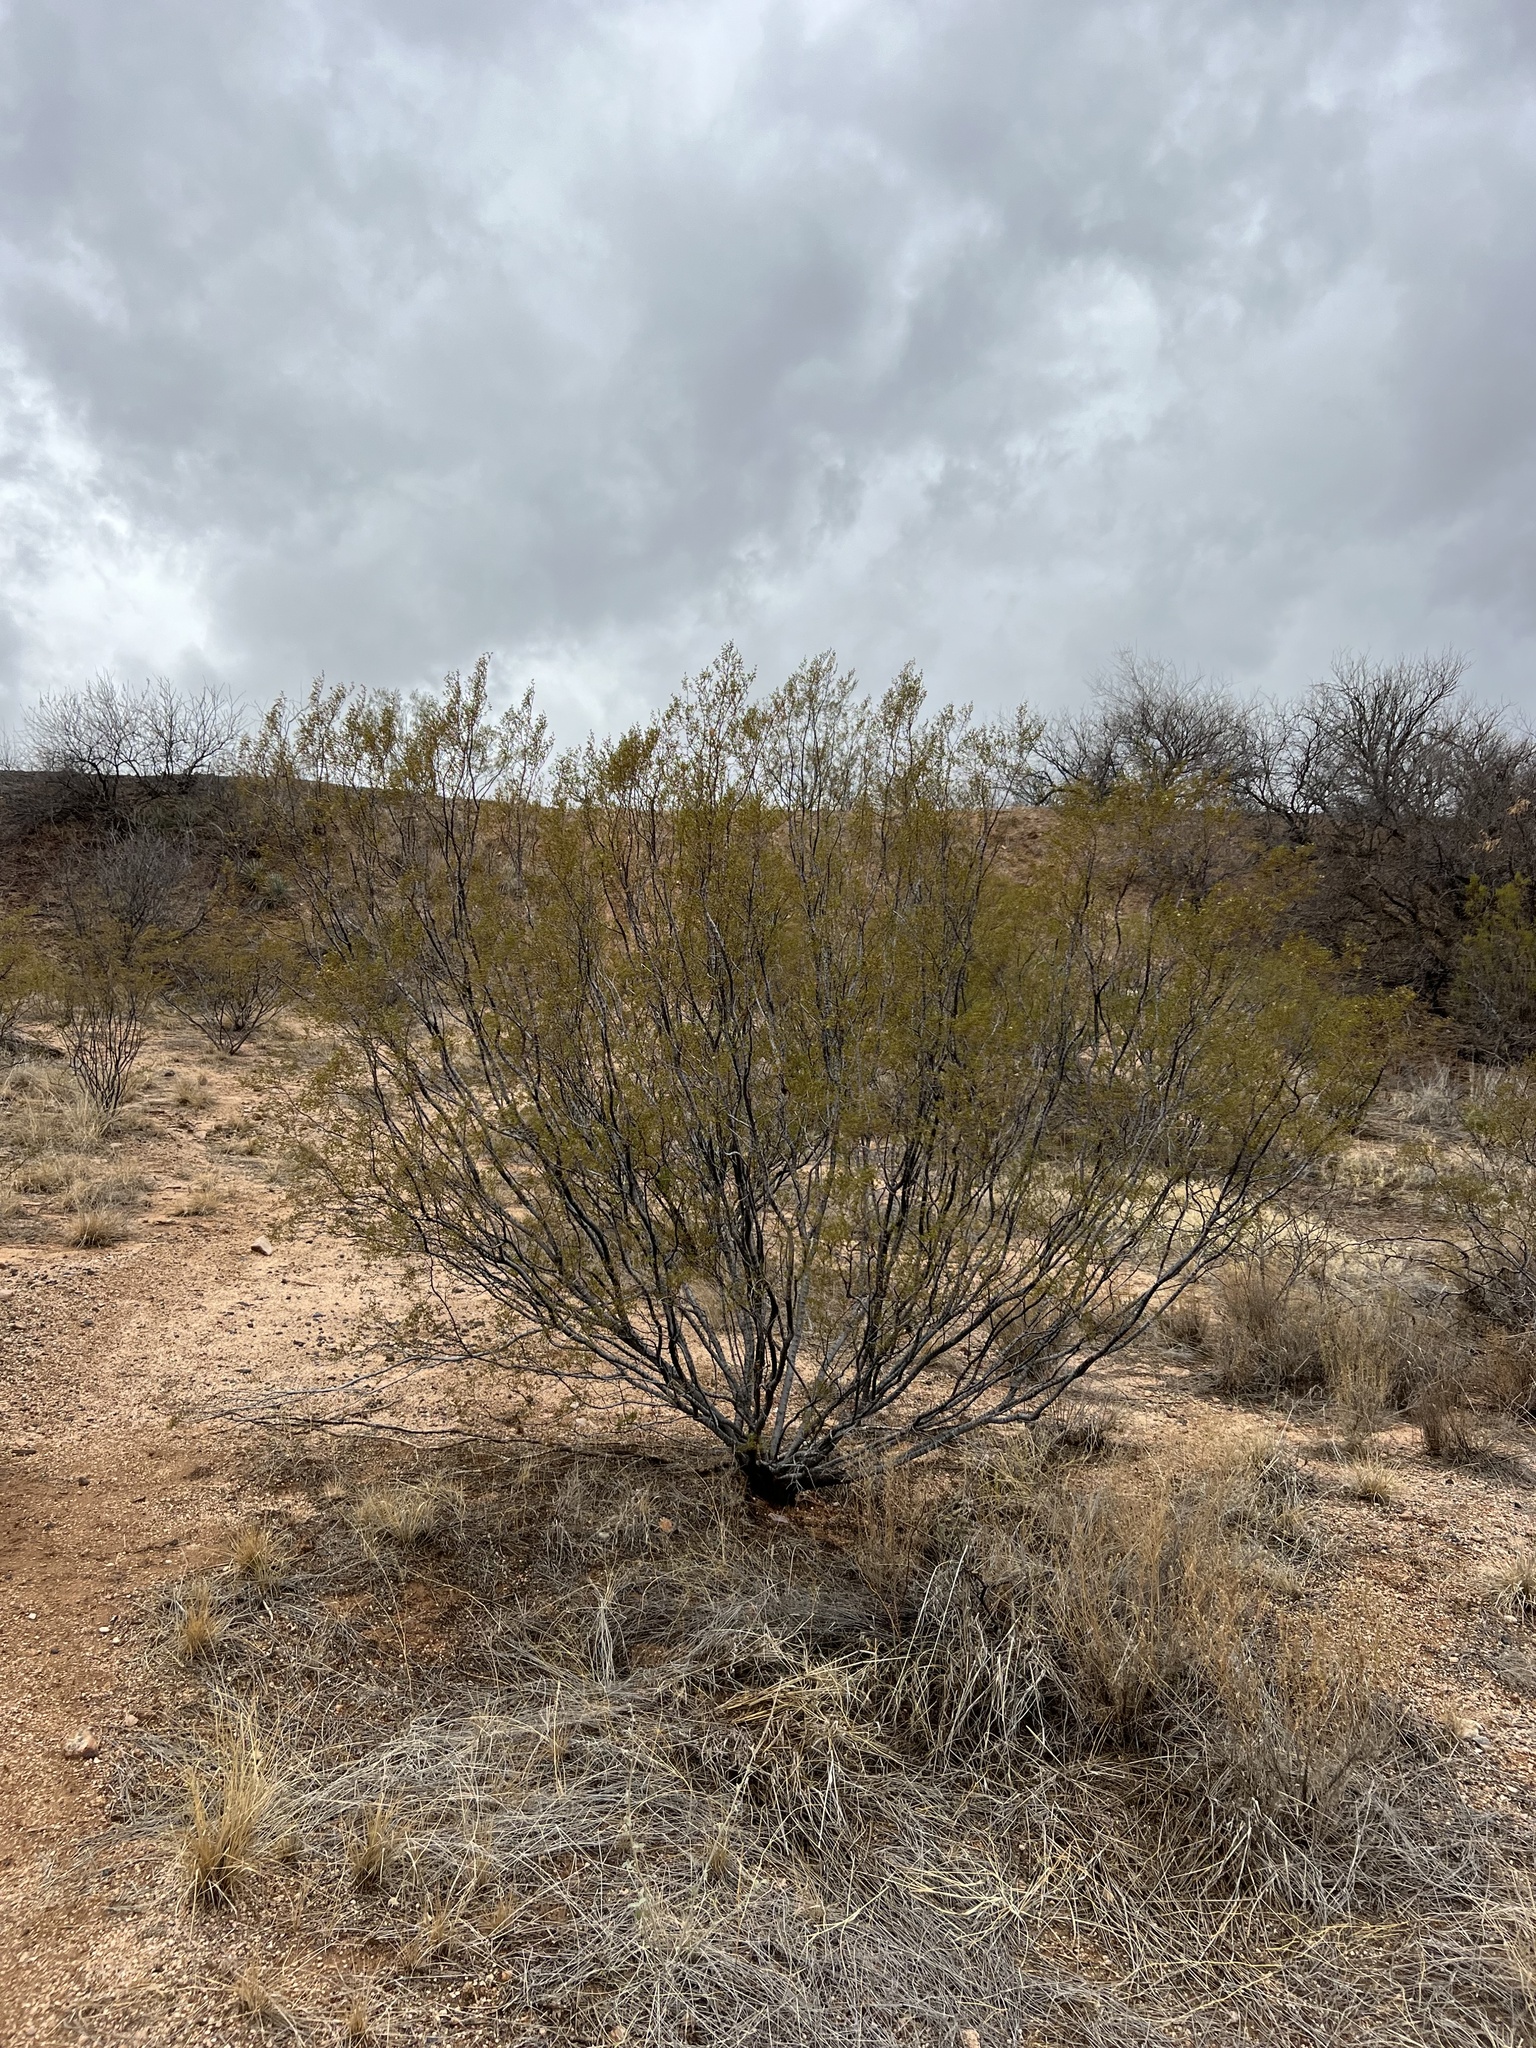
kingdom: Plantae
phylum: Tracheophyta
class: Magnoliopsida
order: Zygophyllales
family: Zygophyllaceae
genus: Larrea
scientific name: Larrea tridentata
